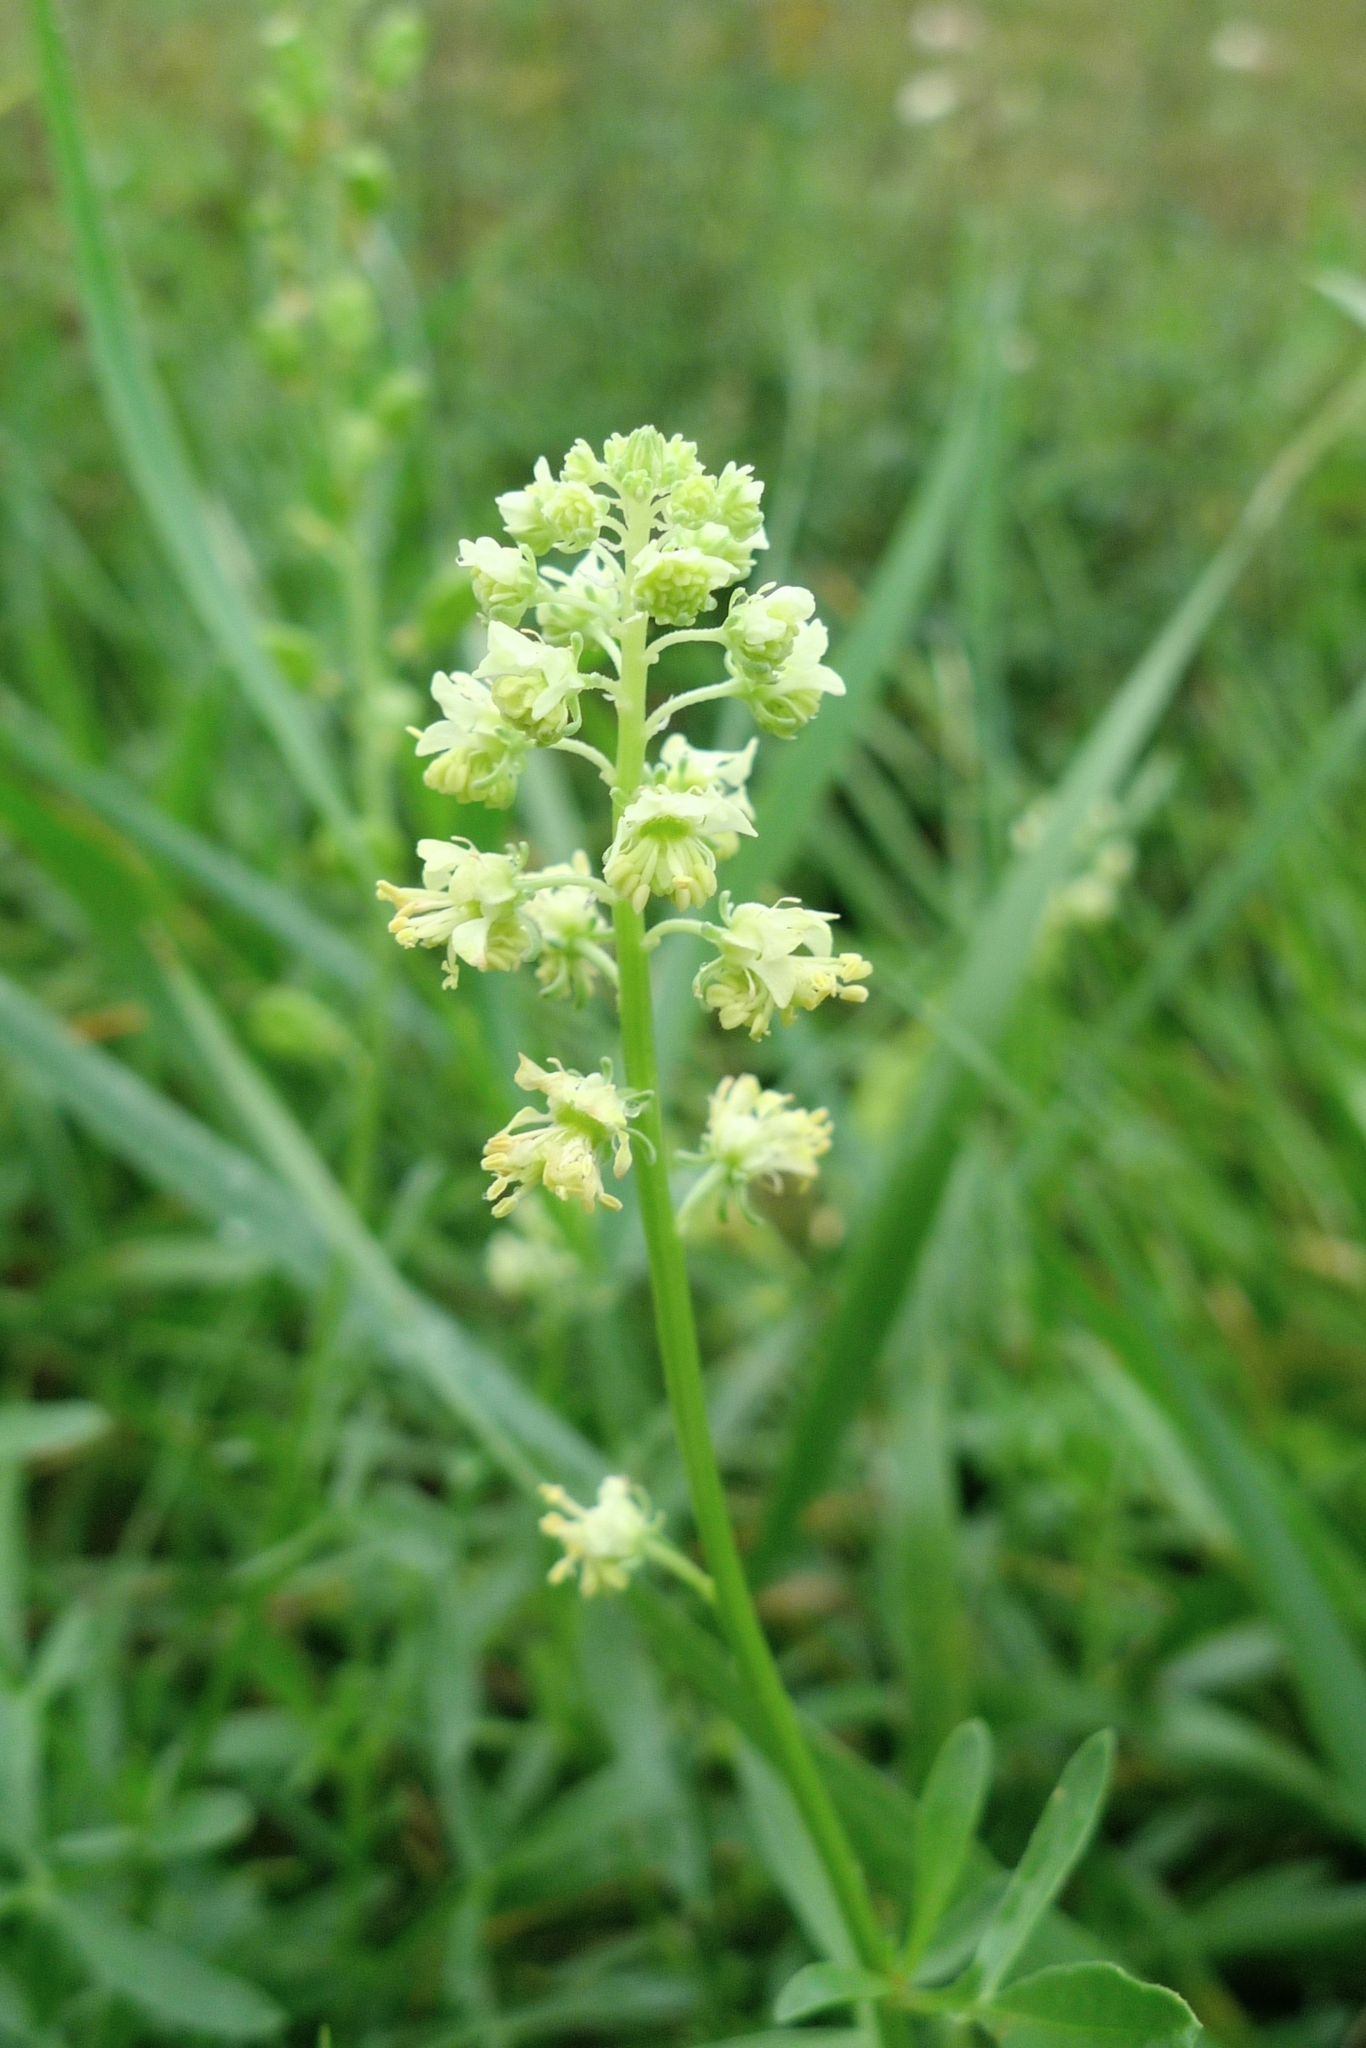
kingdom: Plantae
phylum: Tracheophyta
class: Magnoliopsida
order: Brassicales
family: Resedaceae
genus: Reseda
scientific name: Reseda lutea
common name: Wild mignonette
